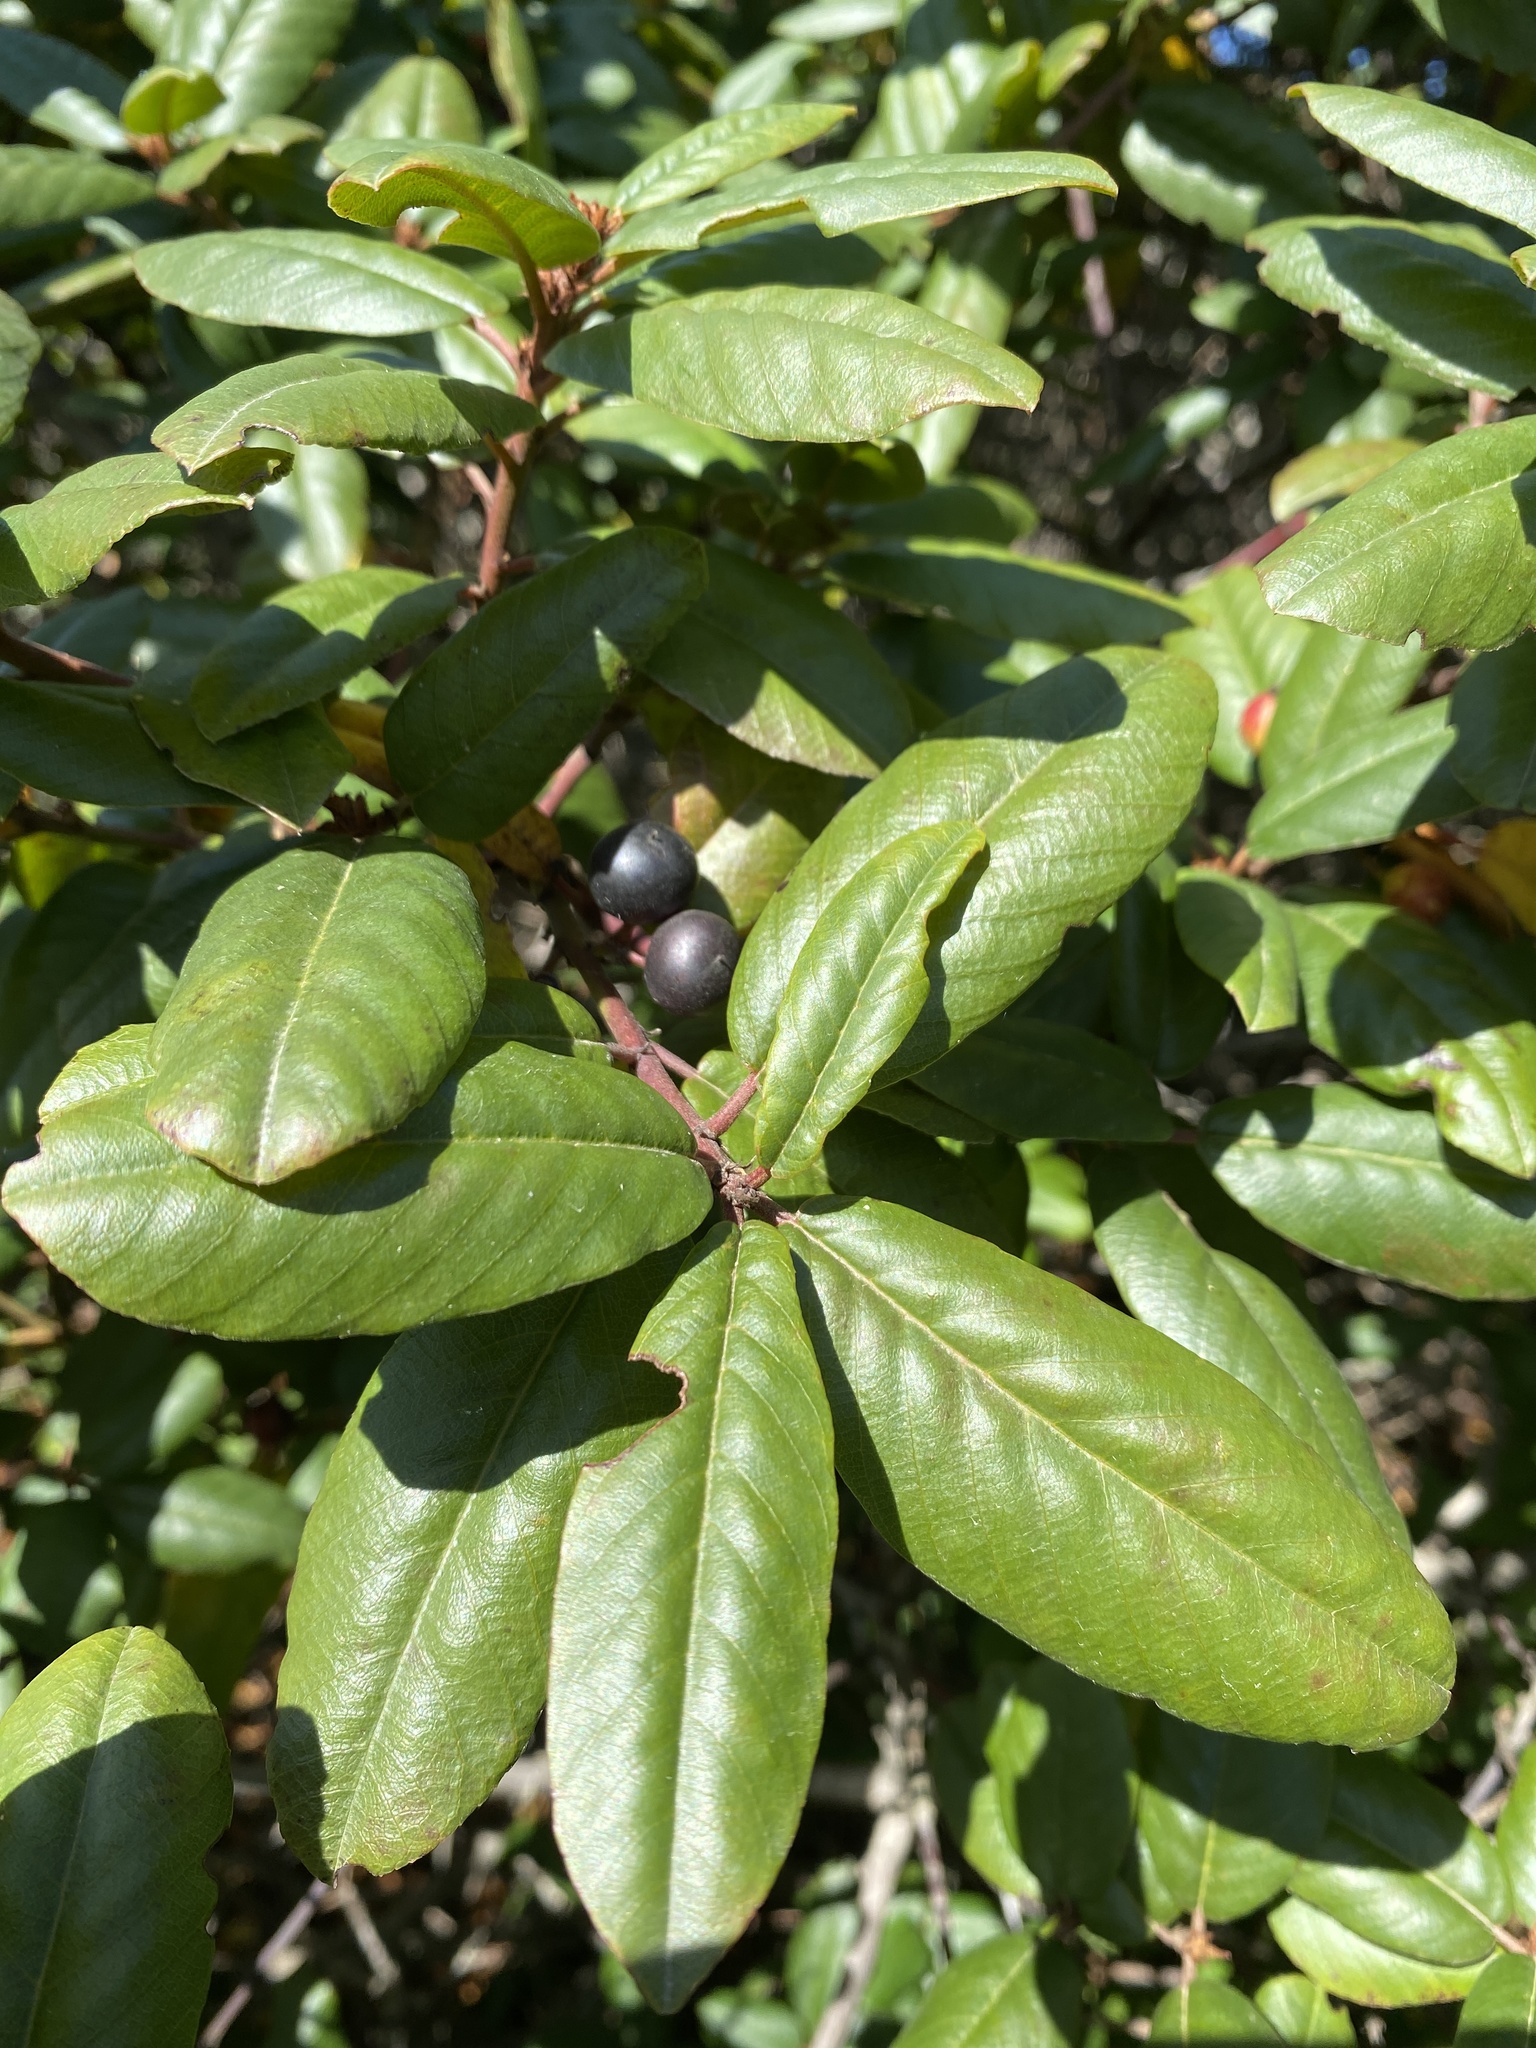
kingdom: Plantae
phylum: Tracheophyta
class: Magnoliopsida
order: Rosales
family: Rhamnaceae
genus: Frangula
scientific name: Frangula californica
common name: California buckthorn
